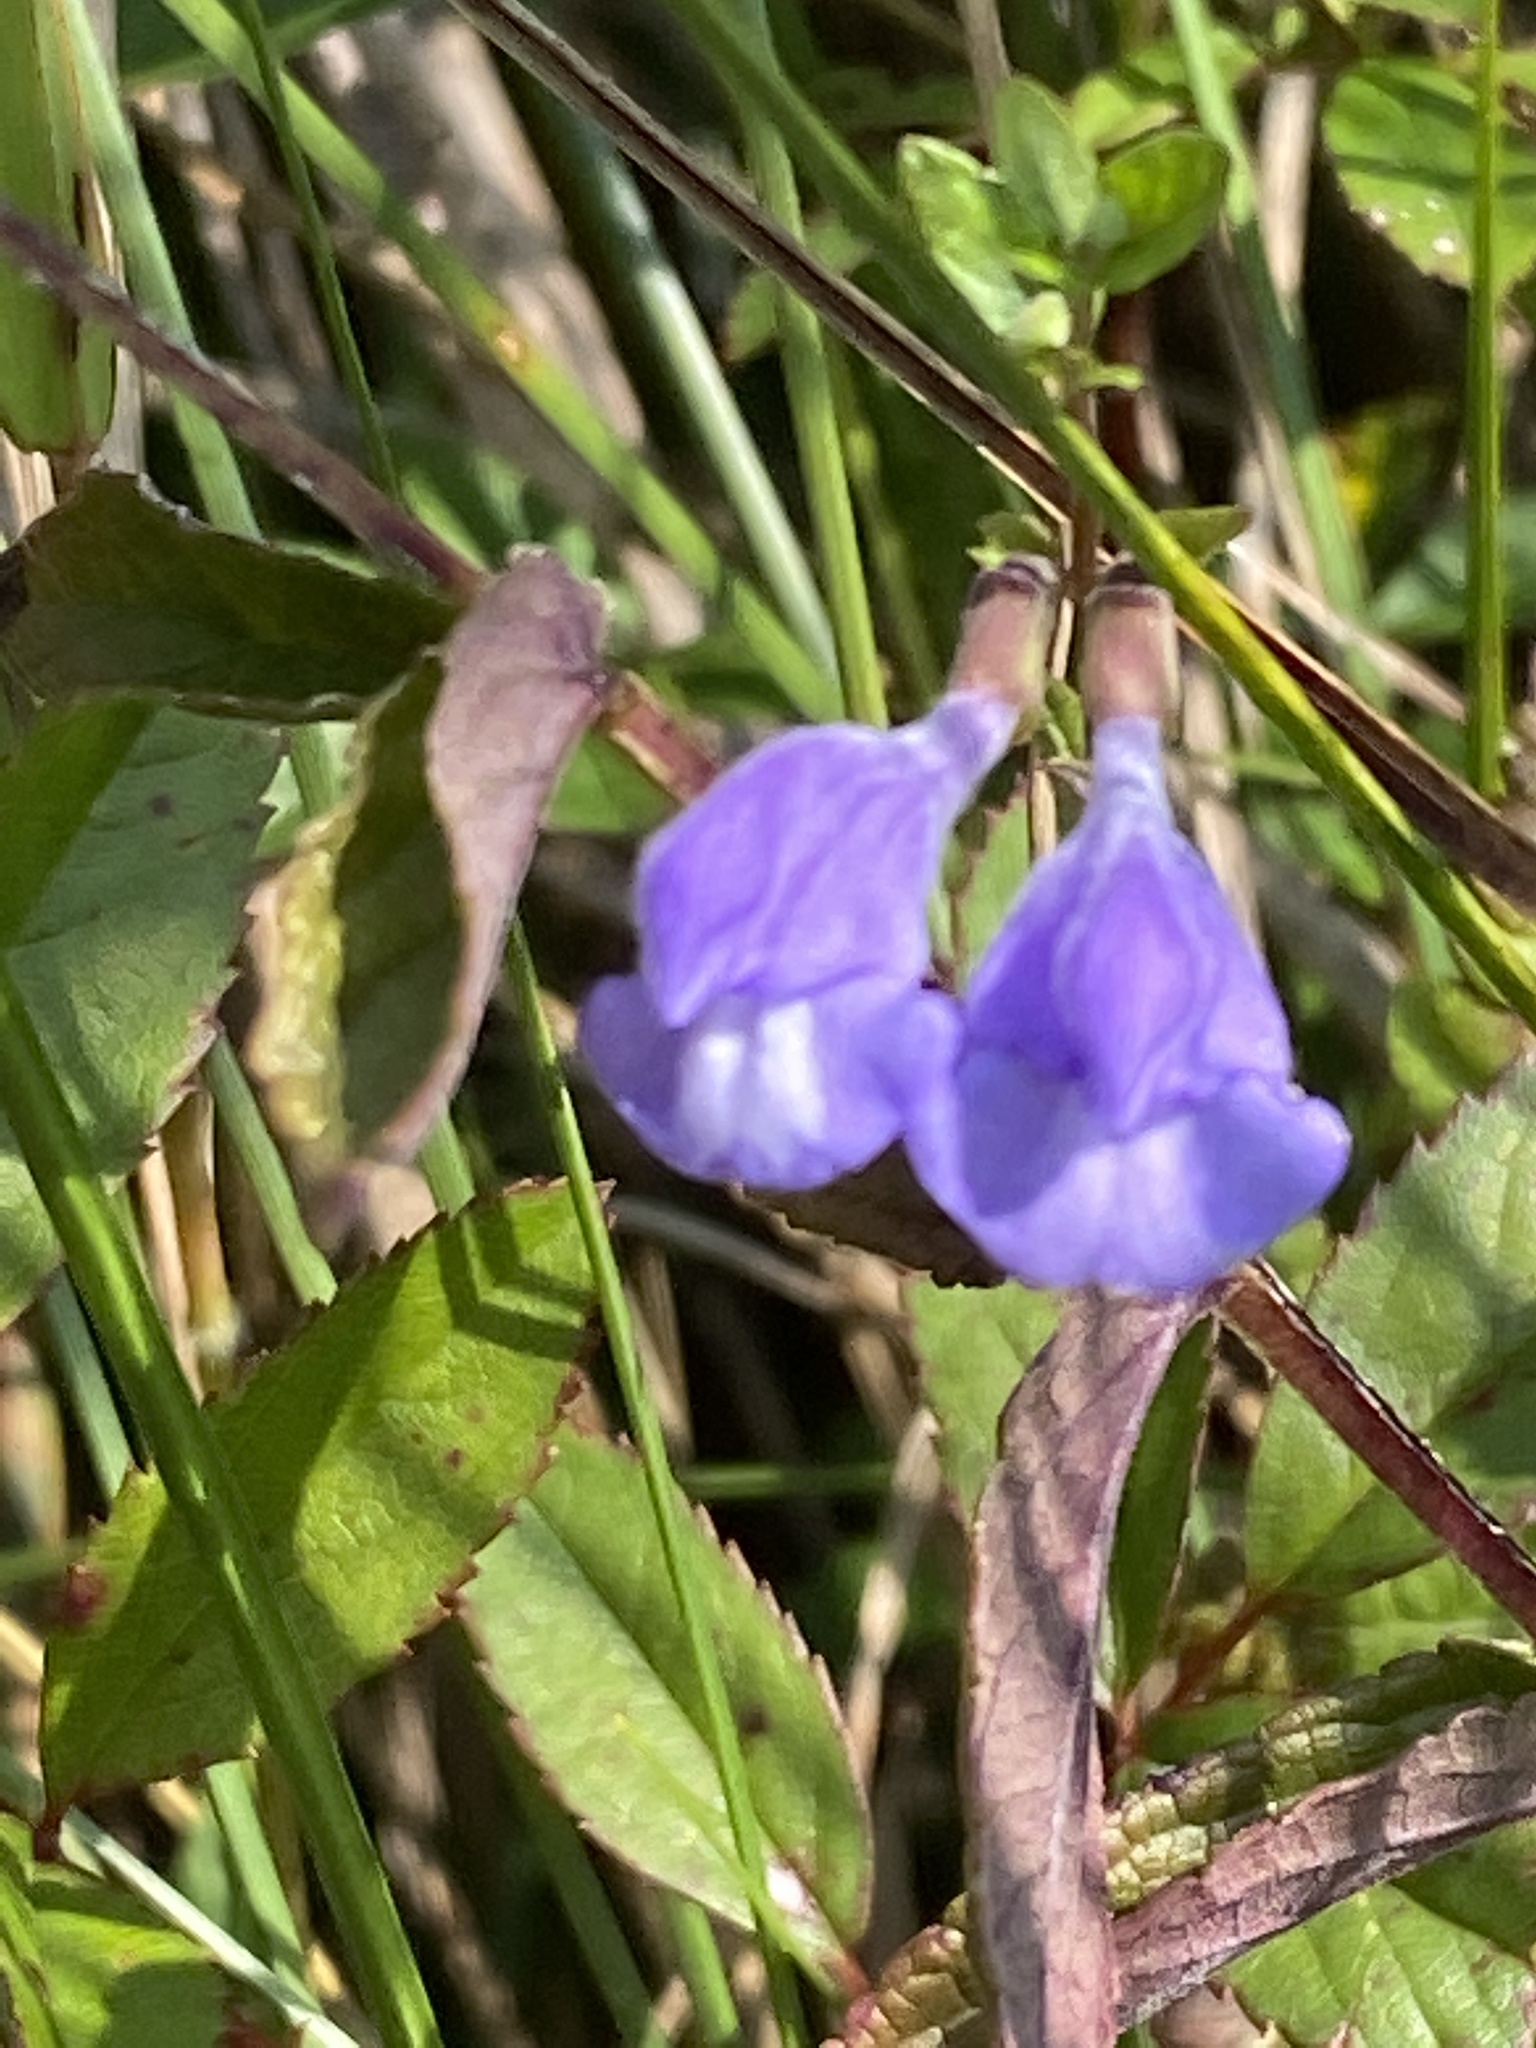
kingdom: Plantae
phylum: Tracheophyta
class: Magnoliopsida
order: Lamiales
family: Lamiaceae
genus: Scutellaria
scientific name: Scutellaria galericulata
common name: Skullcap
